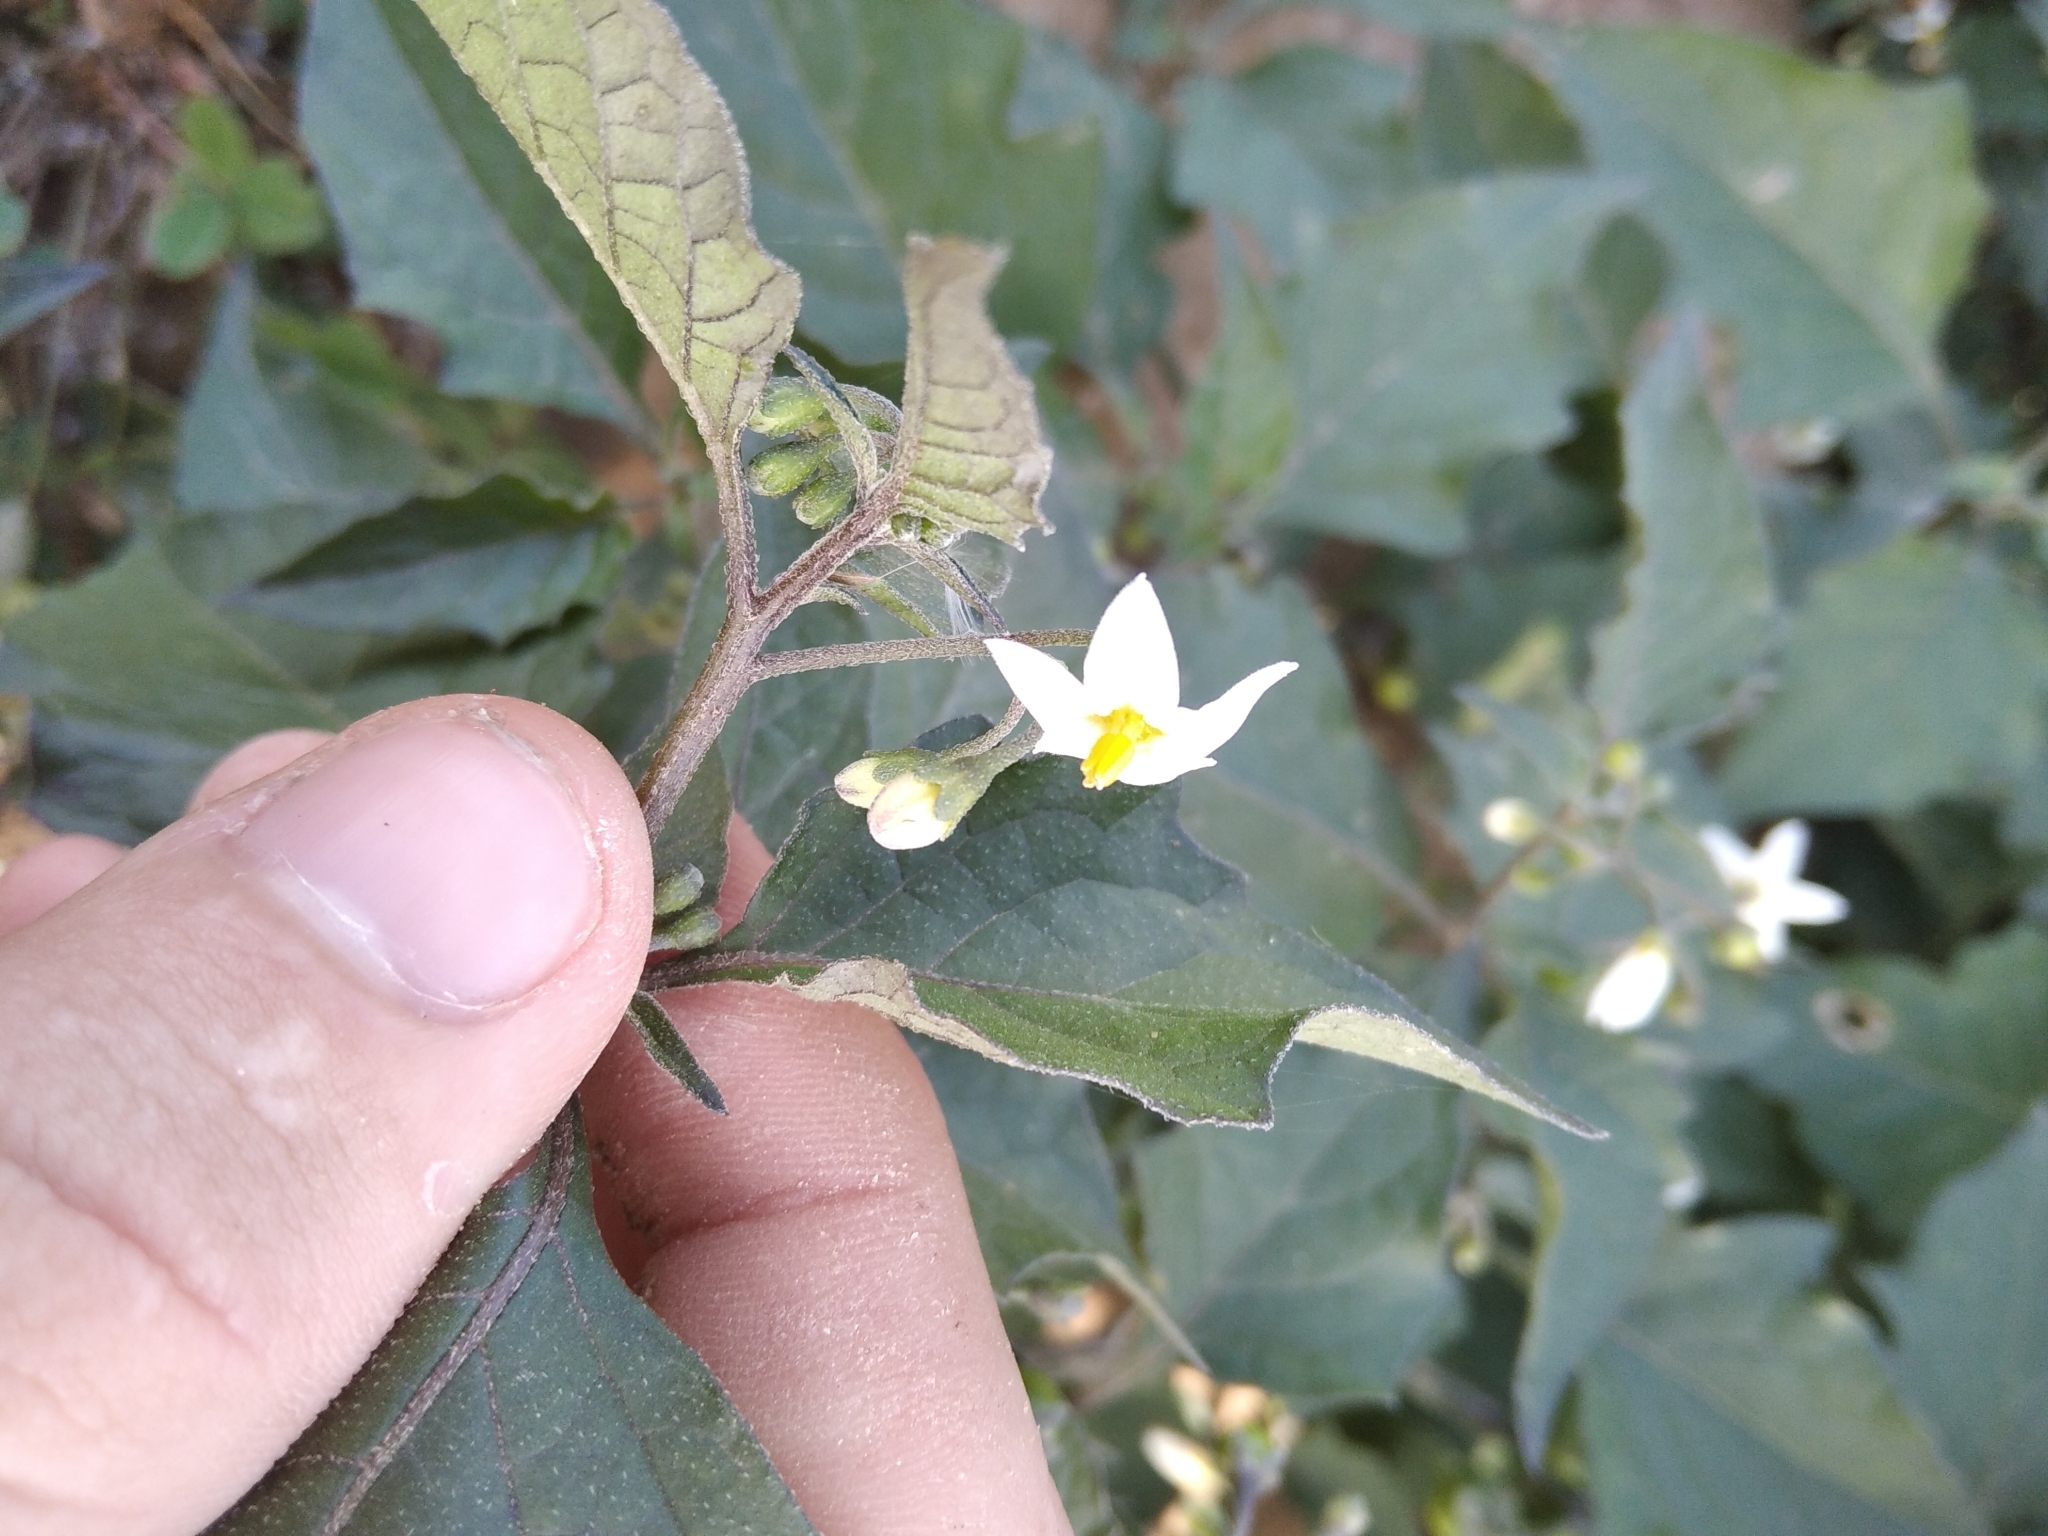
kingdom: Plantae
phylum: Tracheophyta
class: Magnoliopsida
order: Solanales
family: Solanaceae
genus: Solanum
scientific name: Solanum nigrum
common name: Black nightshade
